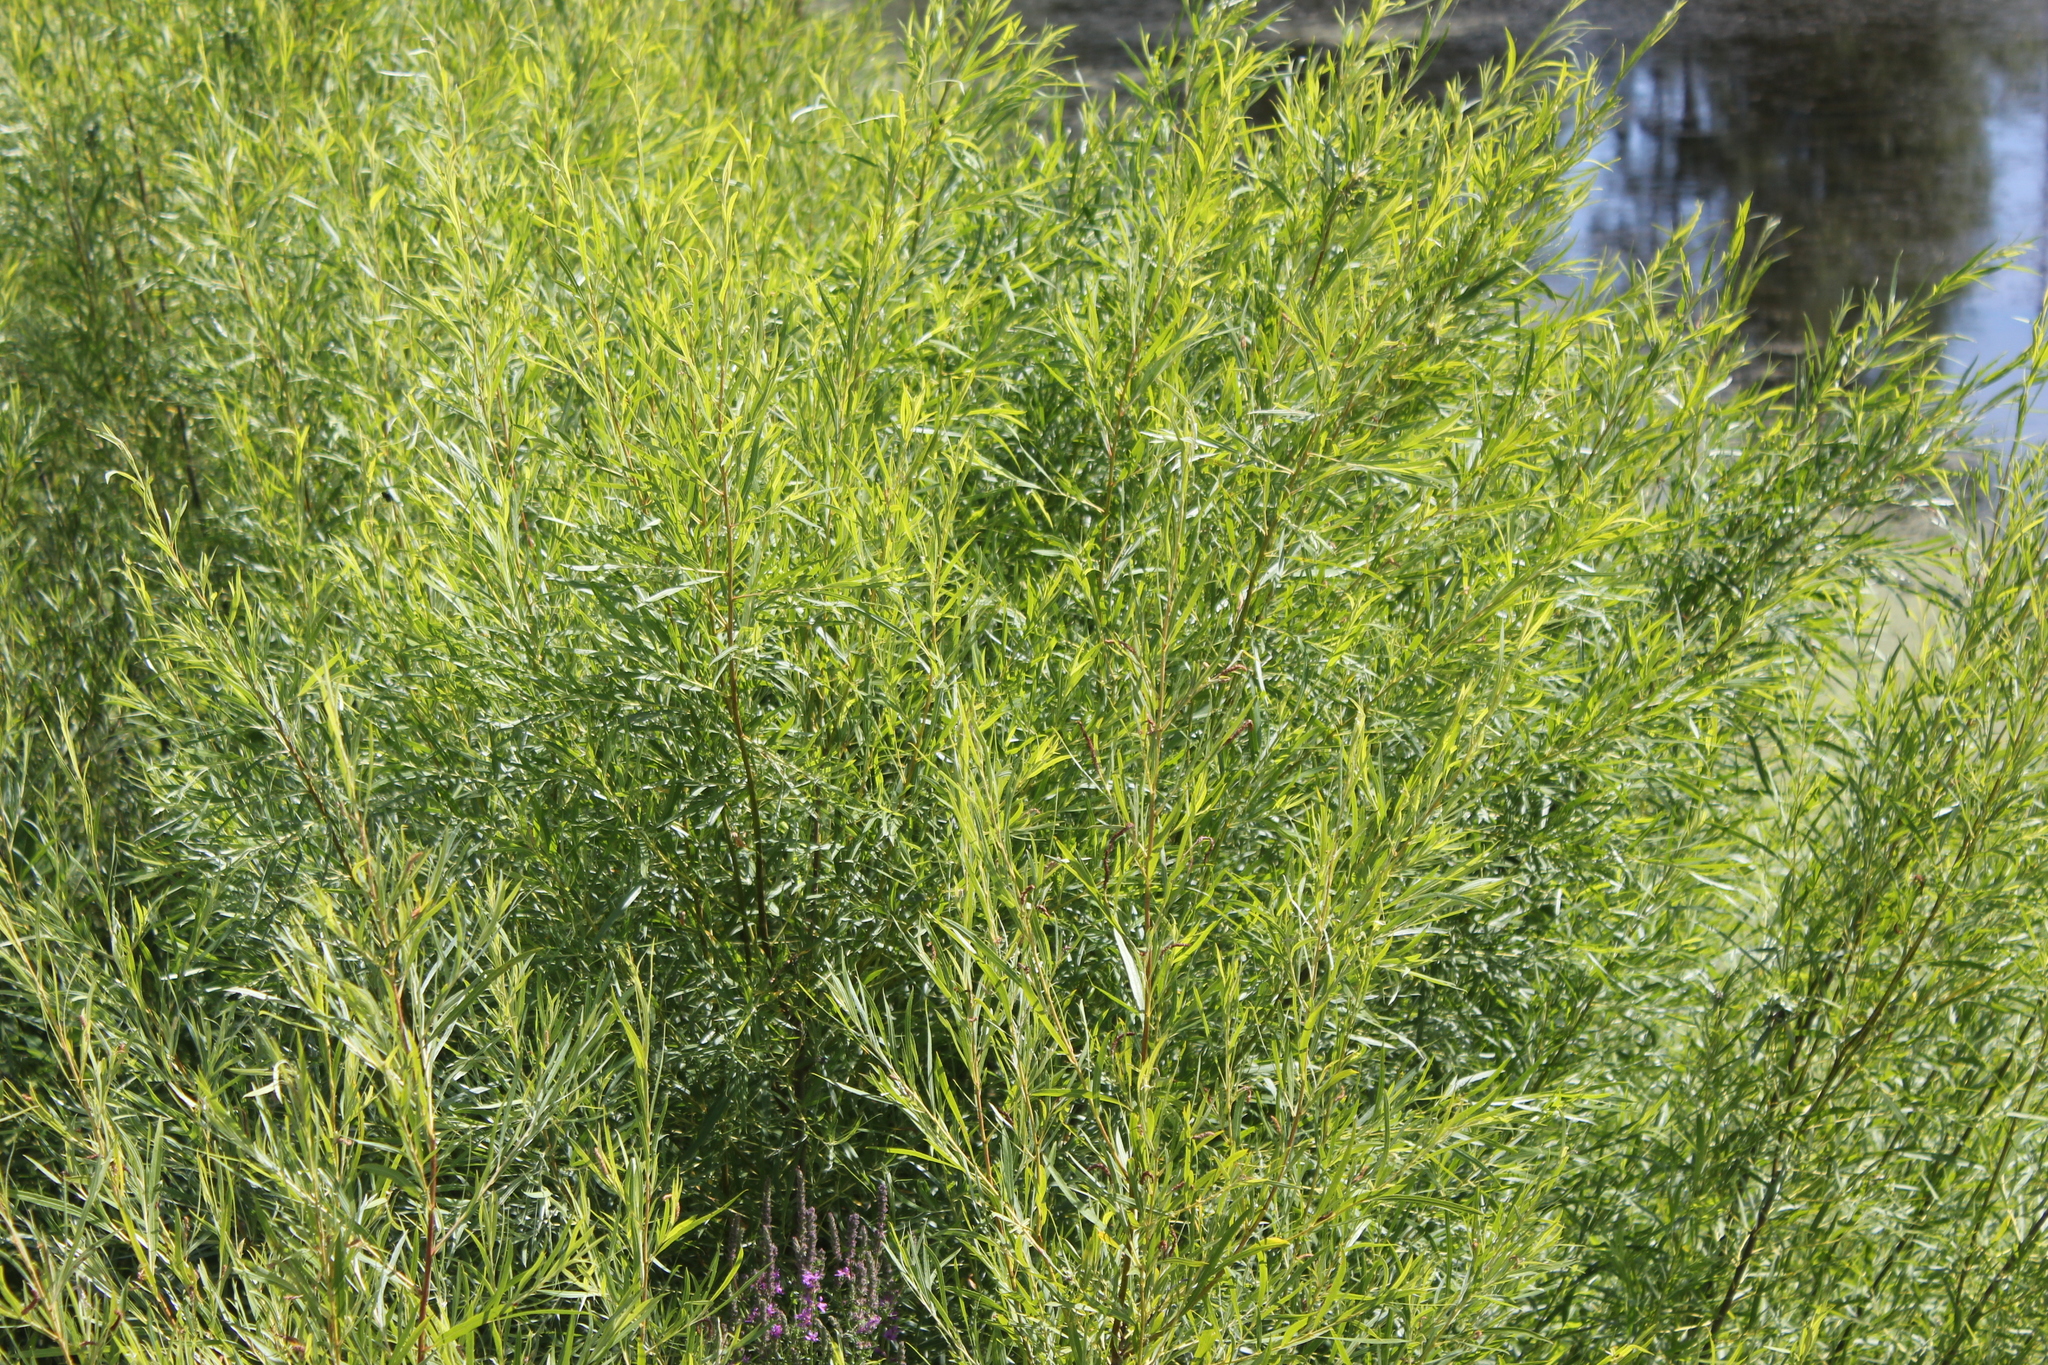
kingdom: Plantae
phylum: Tracheophyta
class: Magnoliopsida
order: Malpighiales
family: Salicaceae
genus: Salix
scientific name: Salix interior
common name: Sandbar willow
